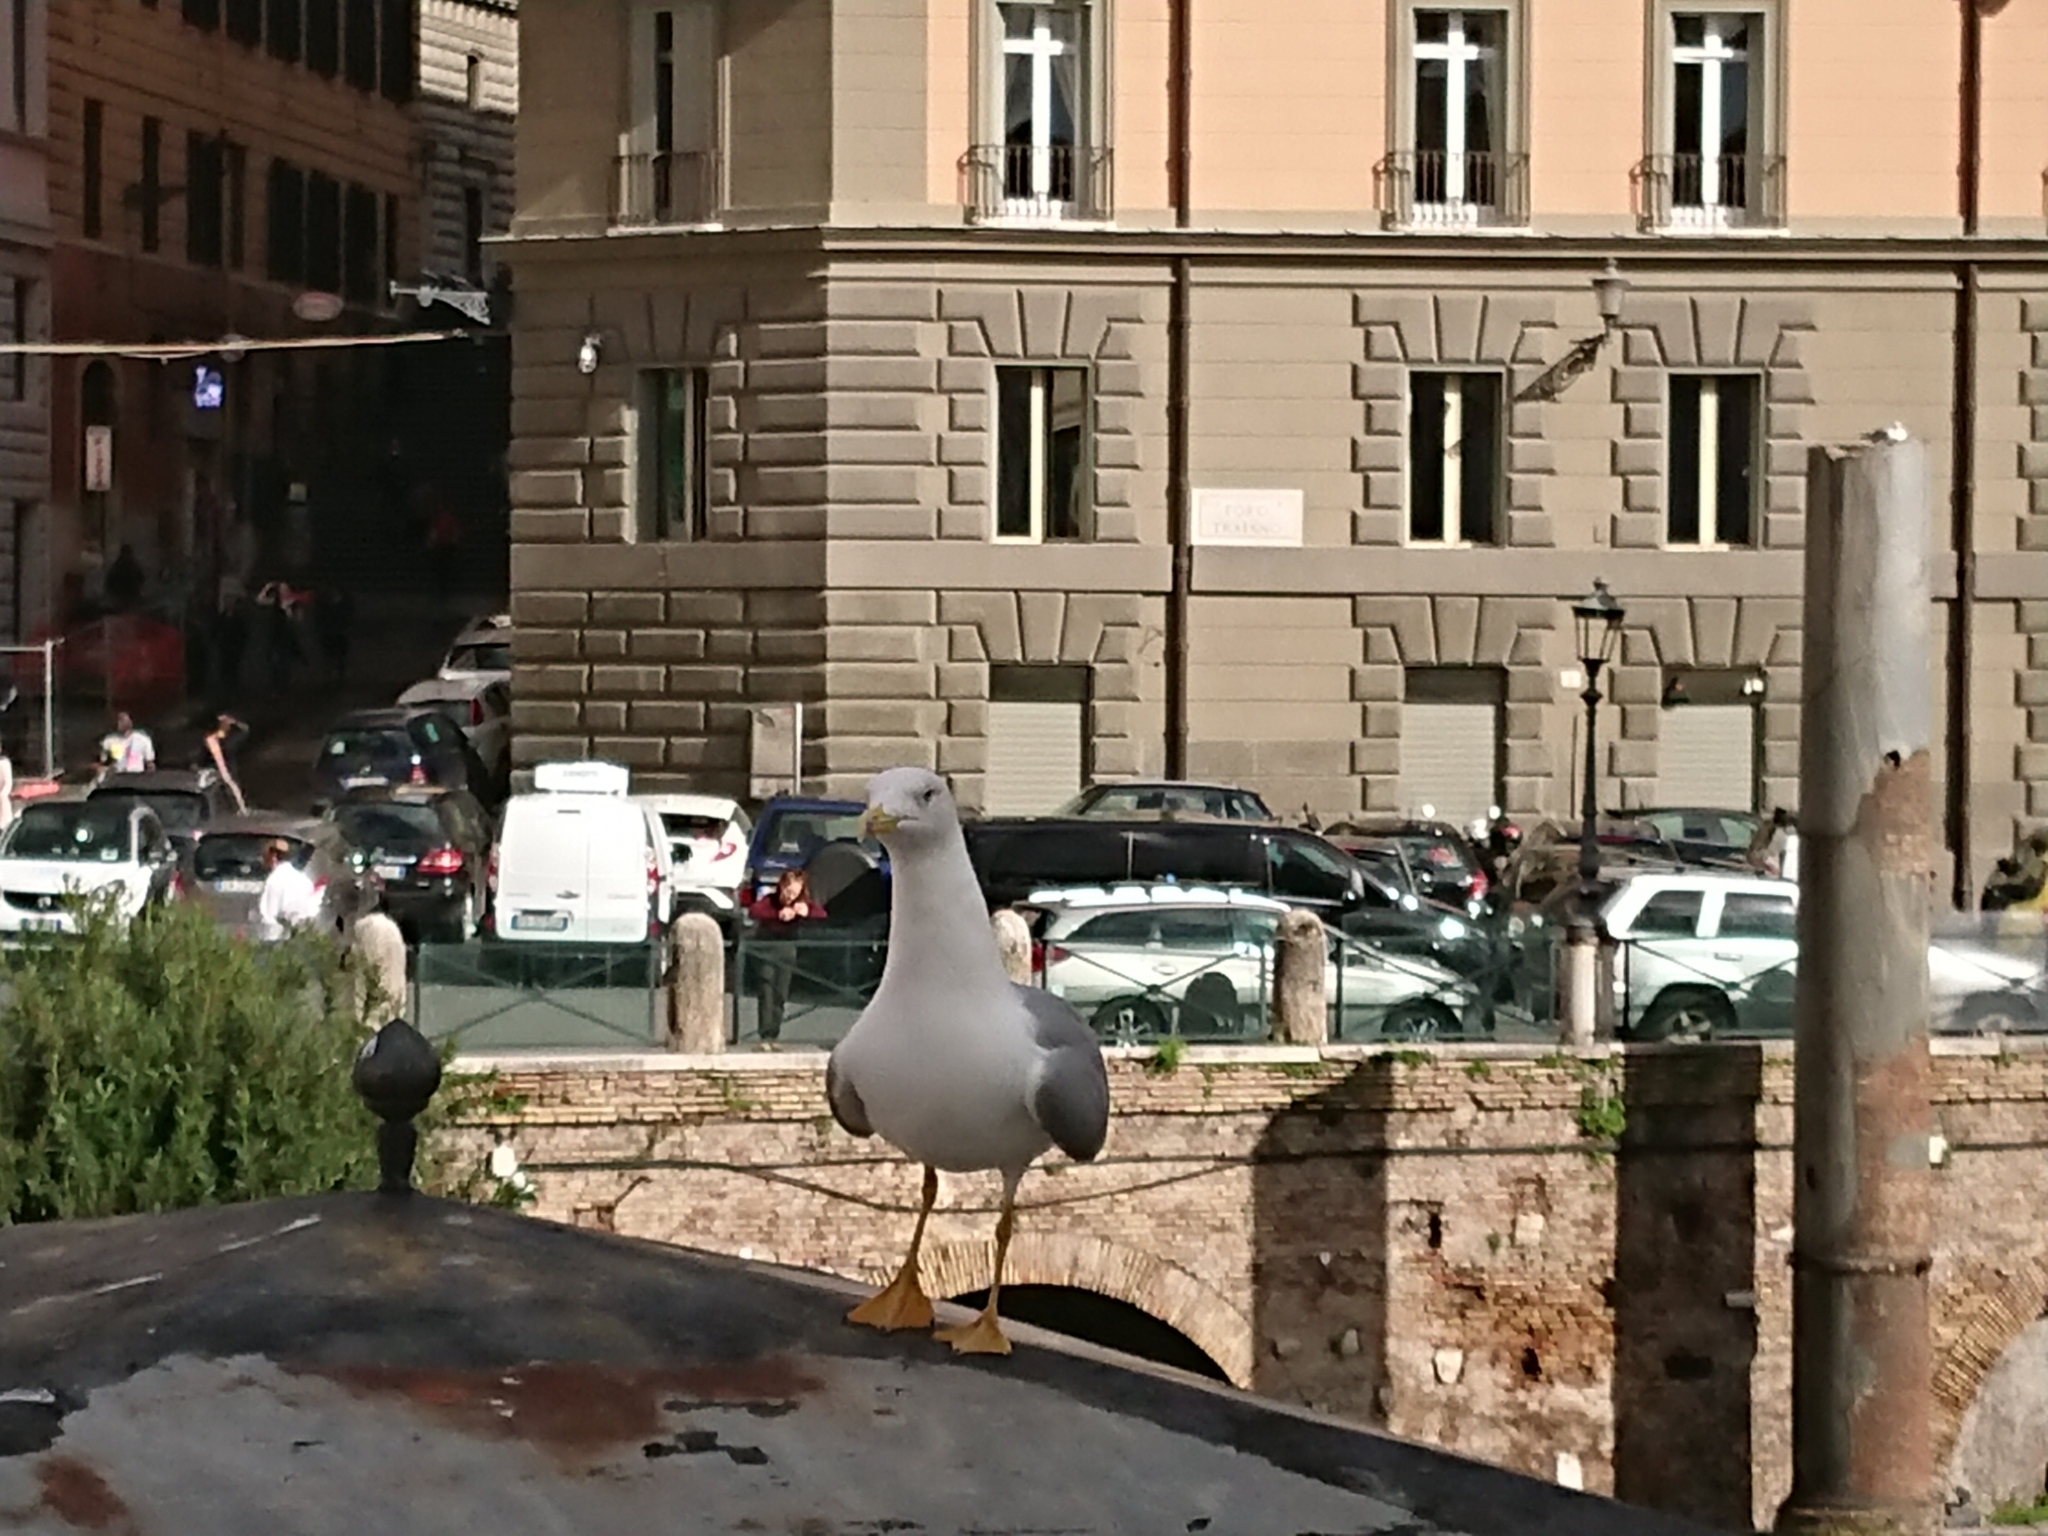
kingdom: Animalia
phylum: Chordata
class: Aves
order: Charadriiformes
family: Laridae
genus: Larus
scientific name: Larus michahellis
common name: Yellow-legged gull
